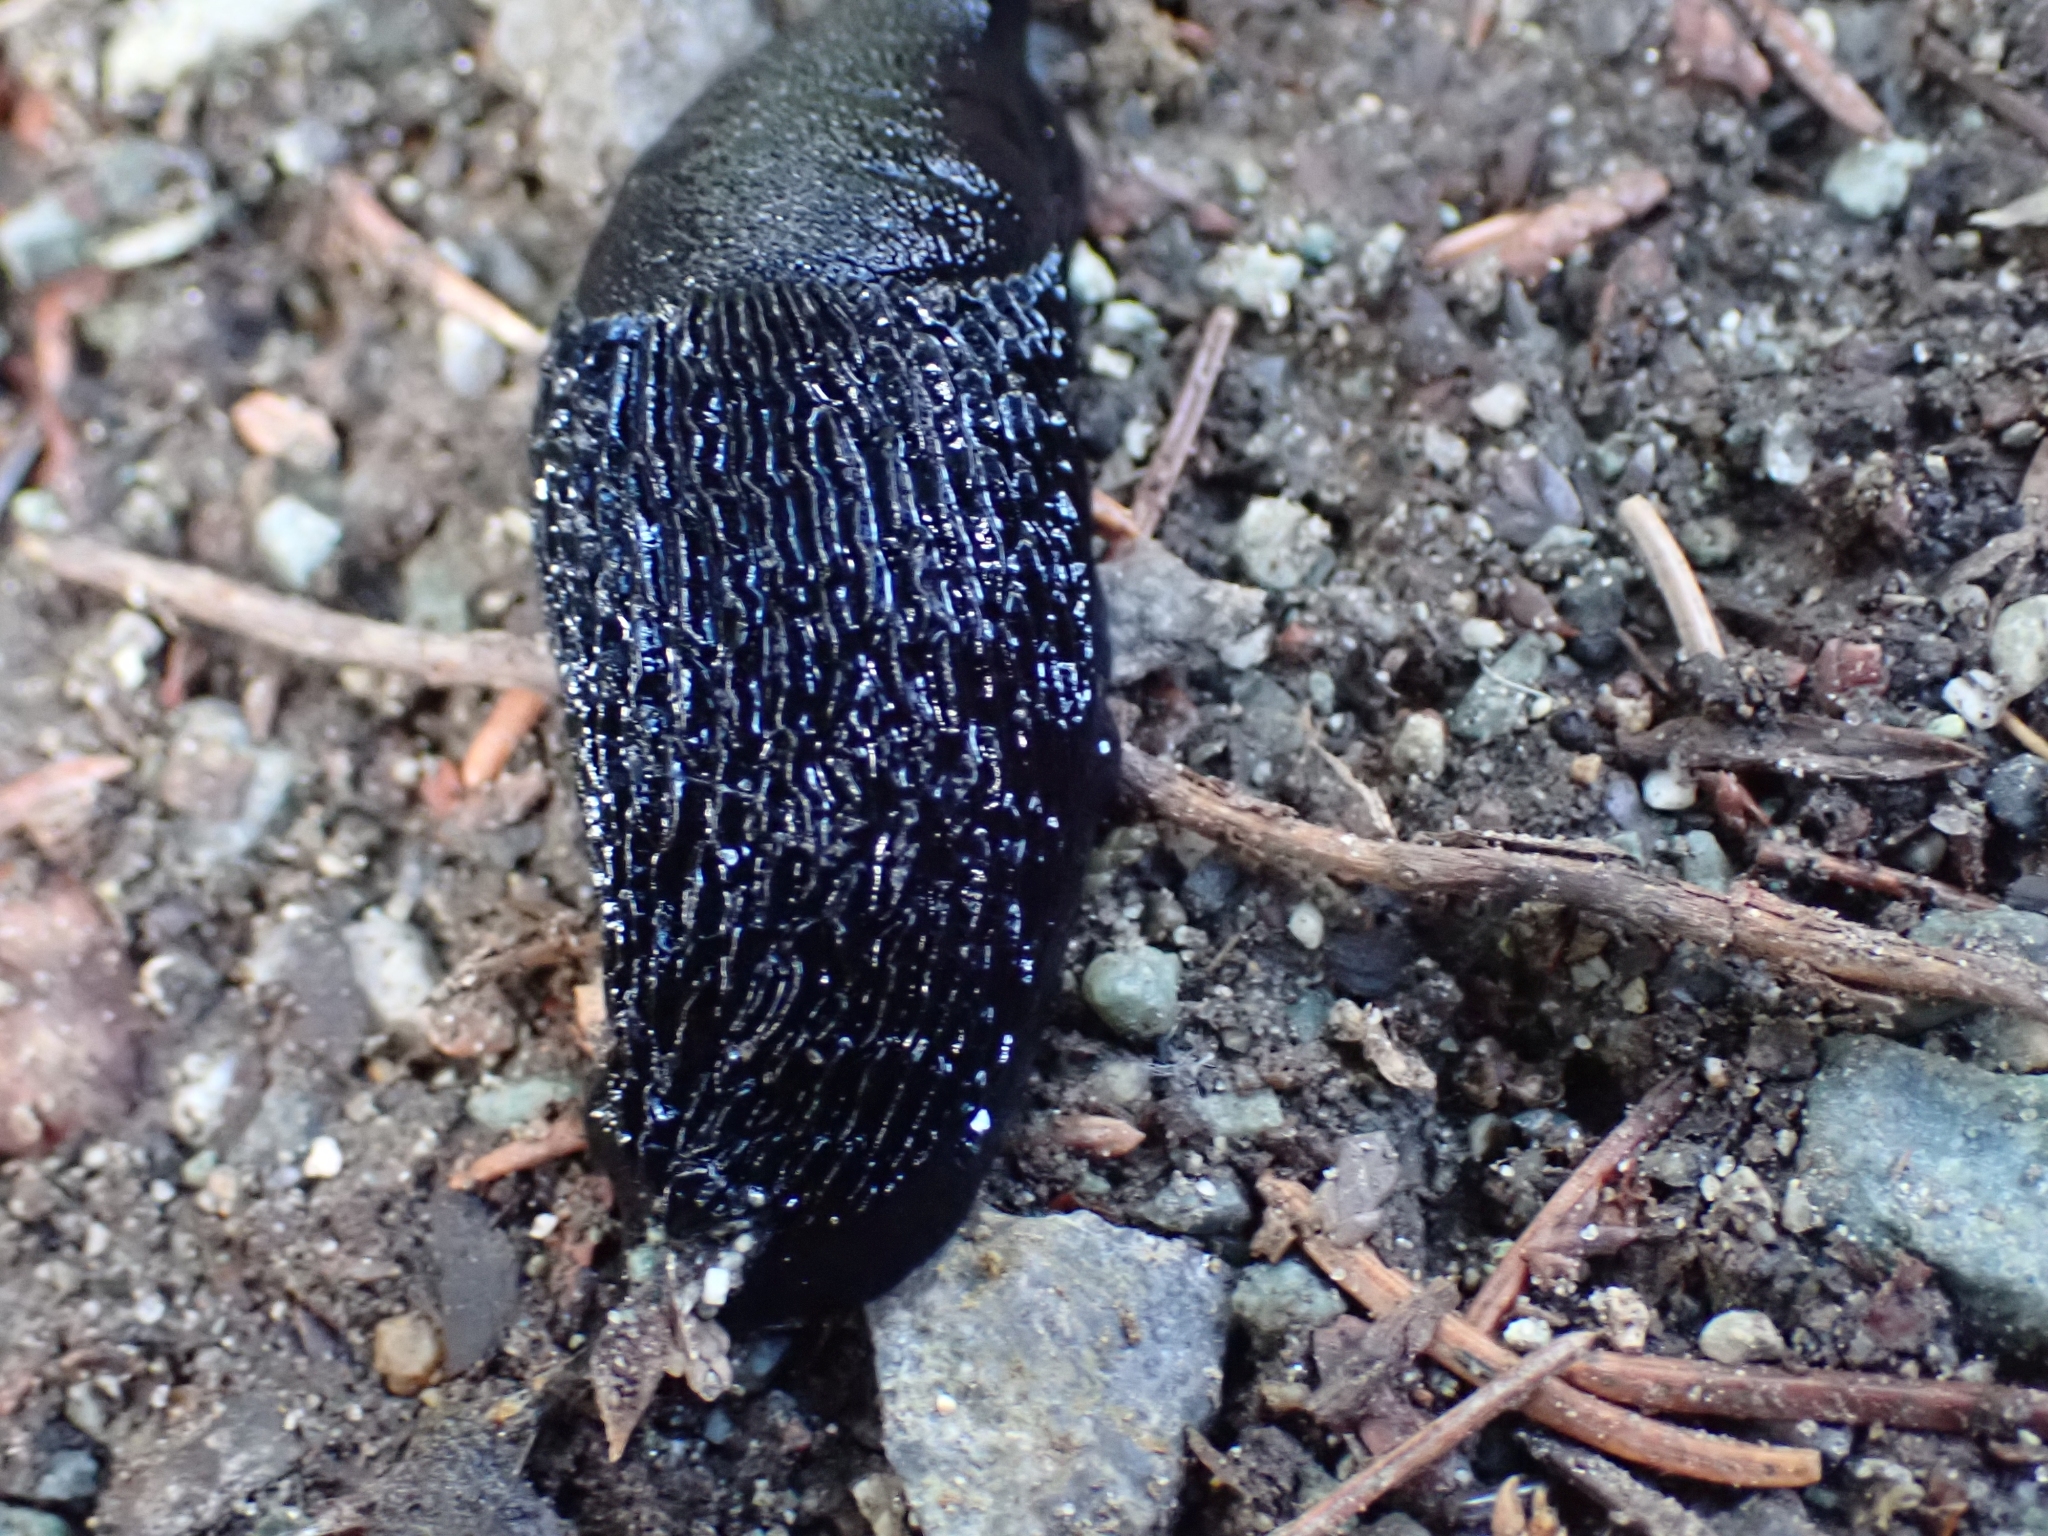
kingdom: Animalia
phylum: Mollusca
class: Gastropoda
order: Stylommatophora
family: Arionidae
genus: Arion
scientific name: Arion
